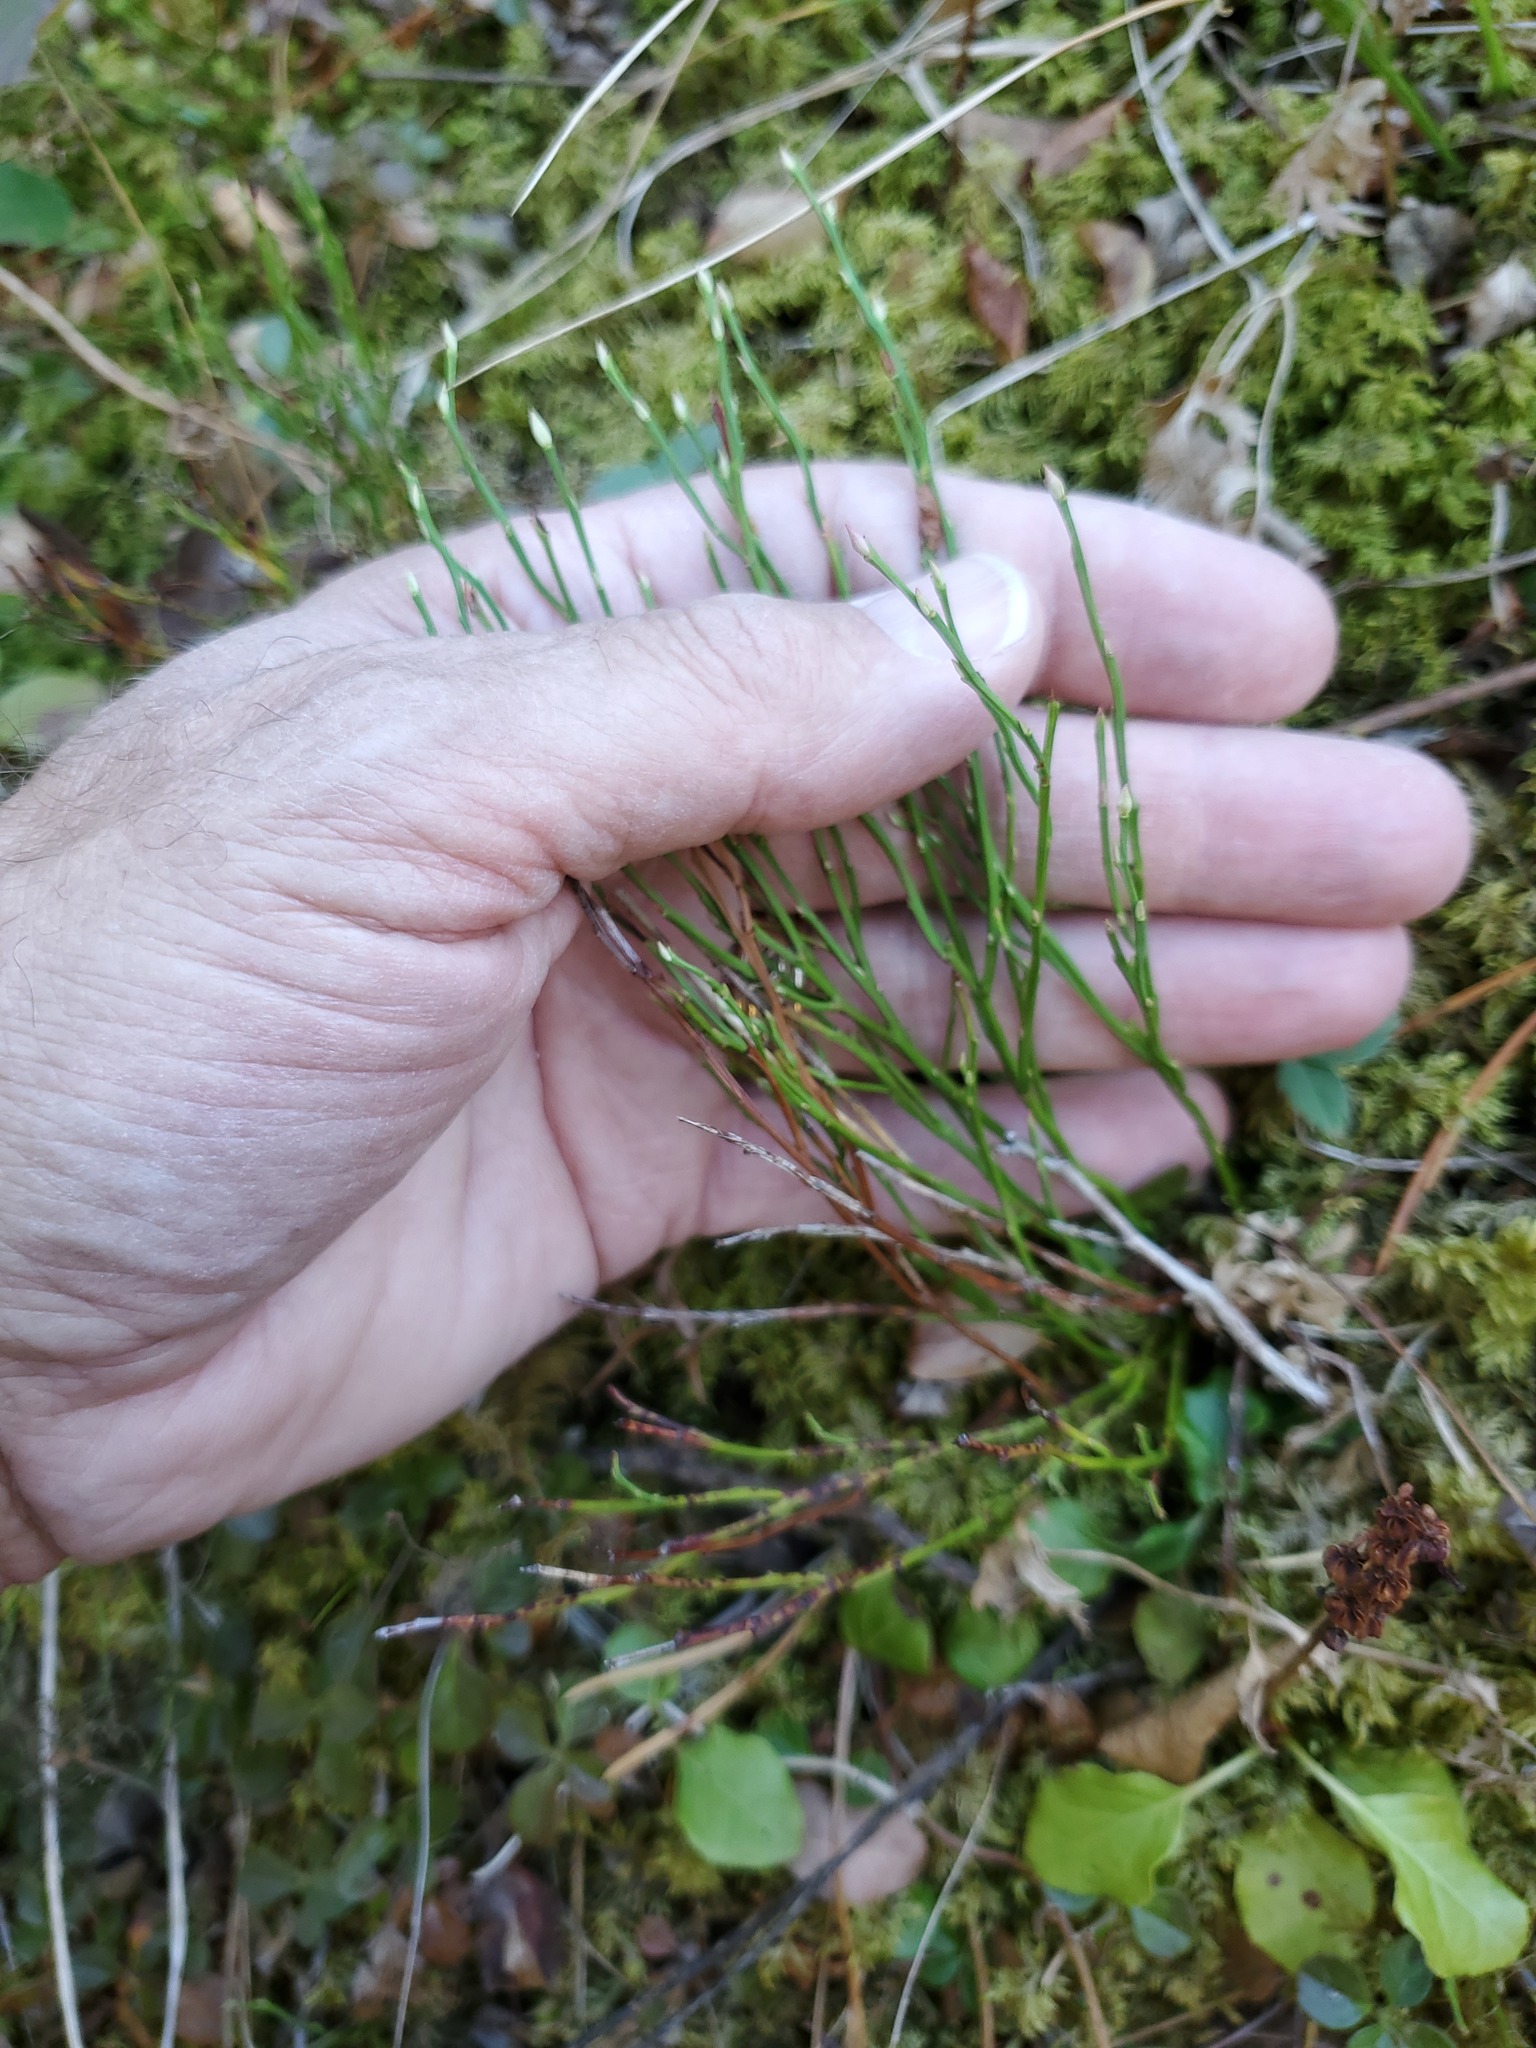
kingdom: Plantae
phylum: Tracheophyta
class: Magnoliopsida
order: Ericales
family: Ericaceae
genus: Vaccinium
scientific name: Vaccinium scoparium
